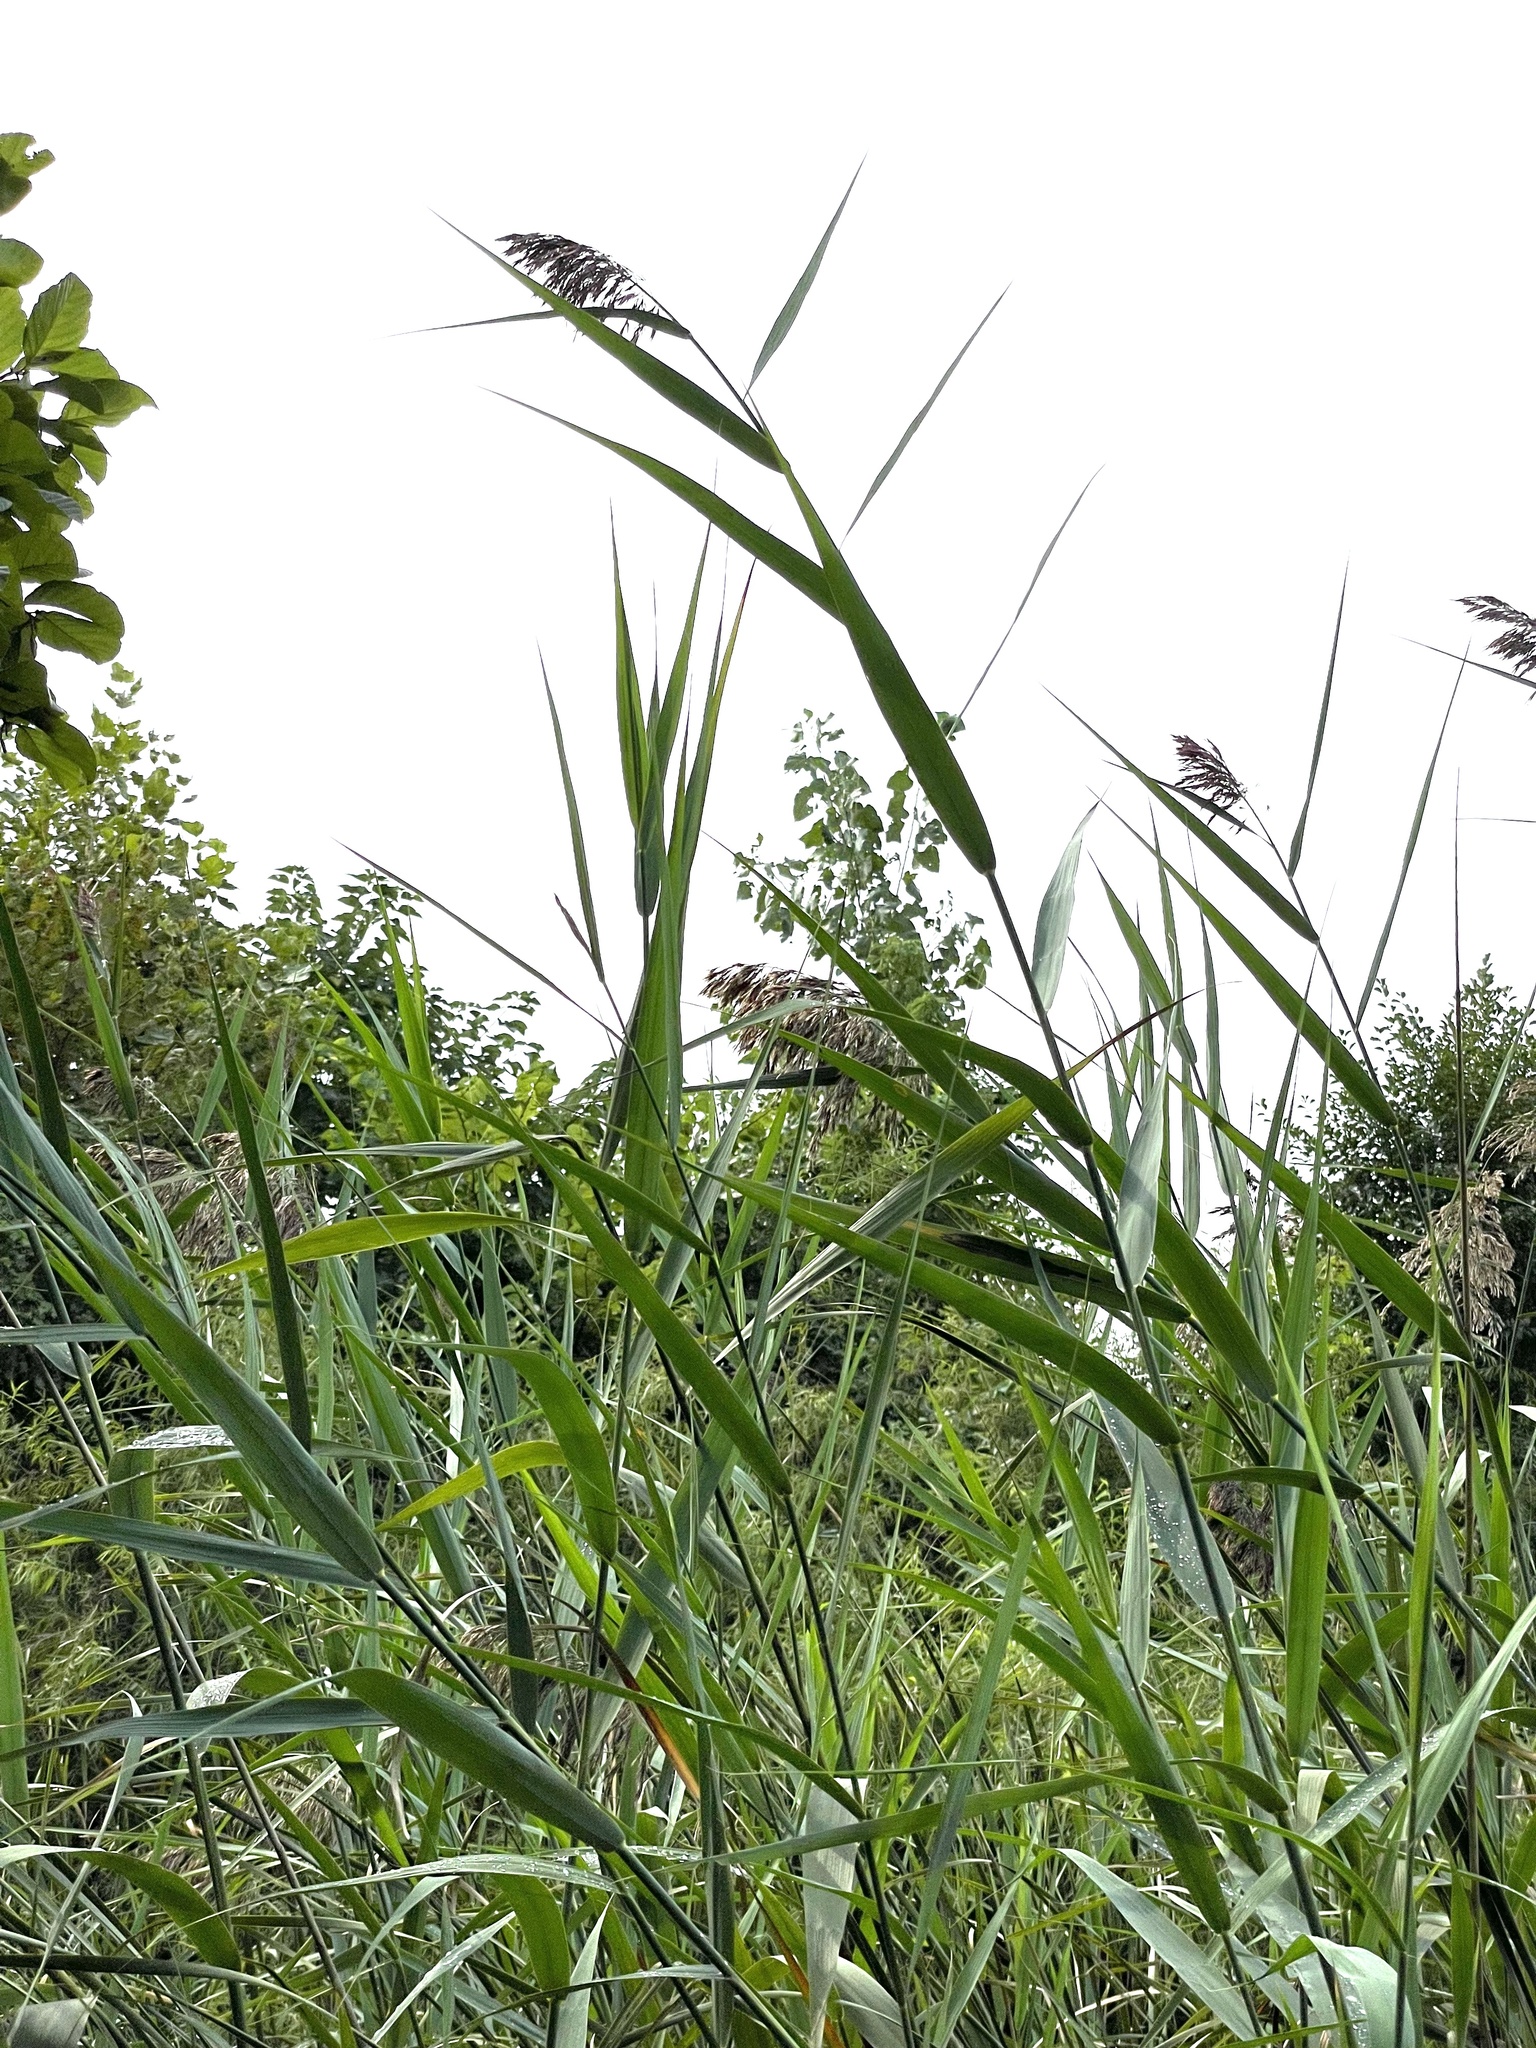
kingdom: Plantae
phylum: Tracheophyta
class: Liliopsida
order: Poales
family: Poaceae
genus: Phragmites
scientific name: Phragmites australis
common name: Common reed
